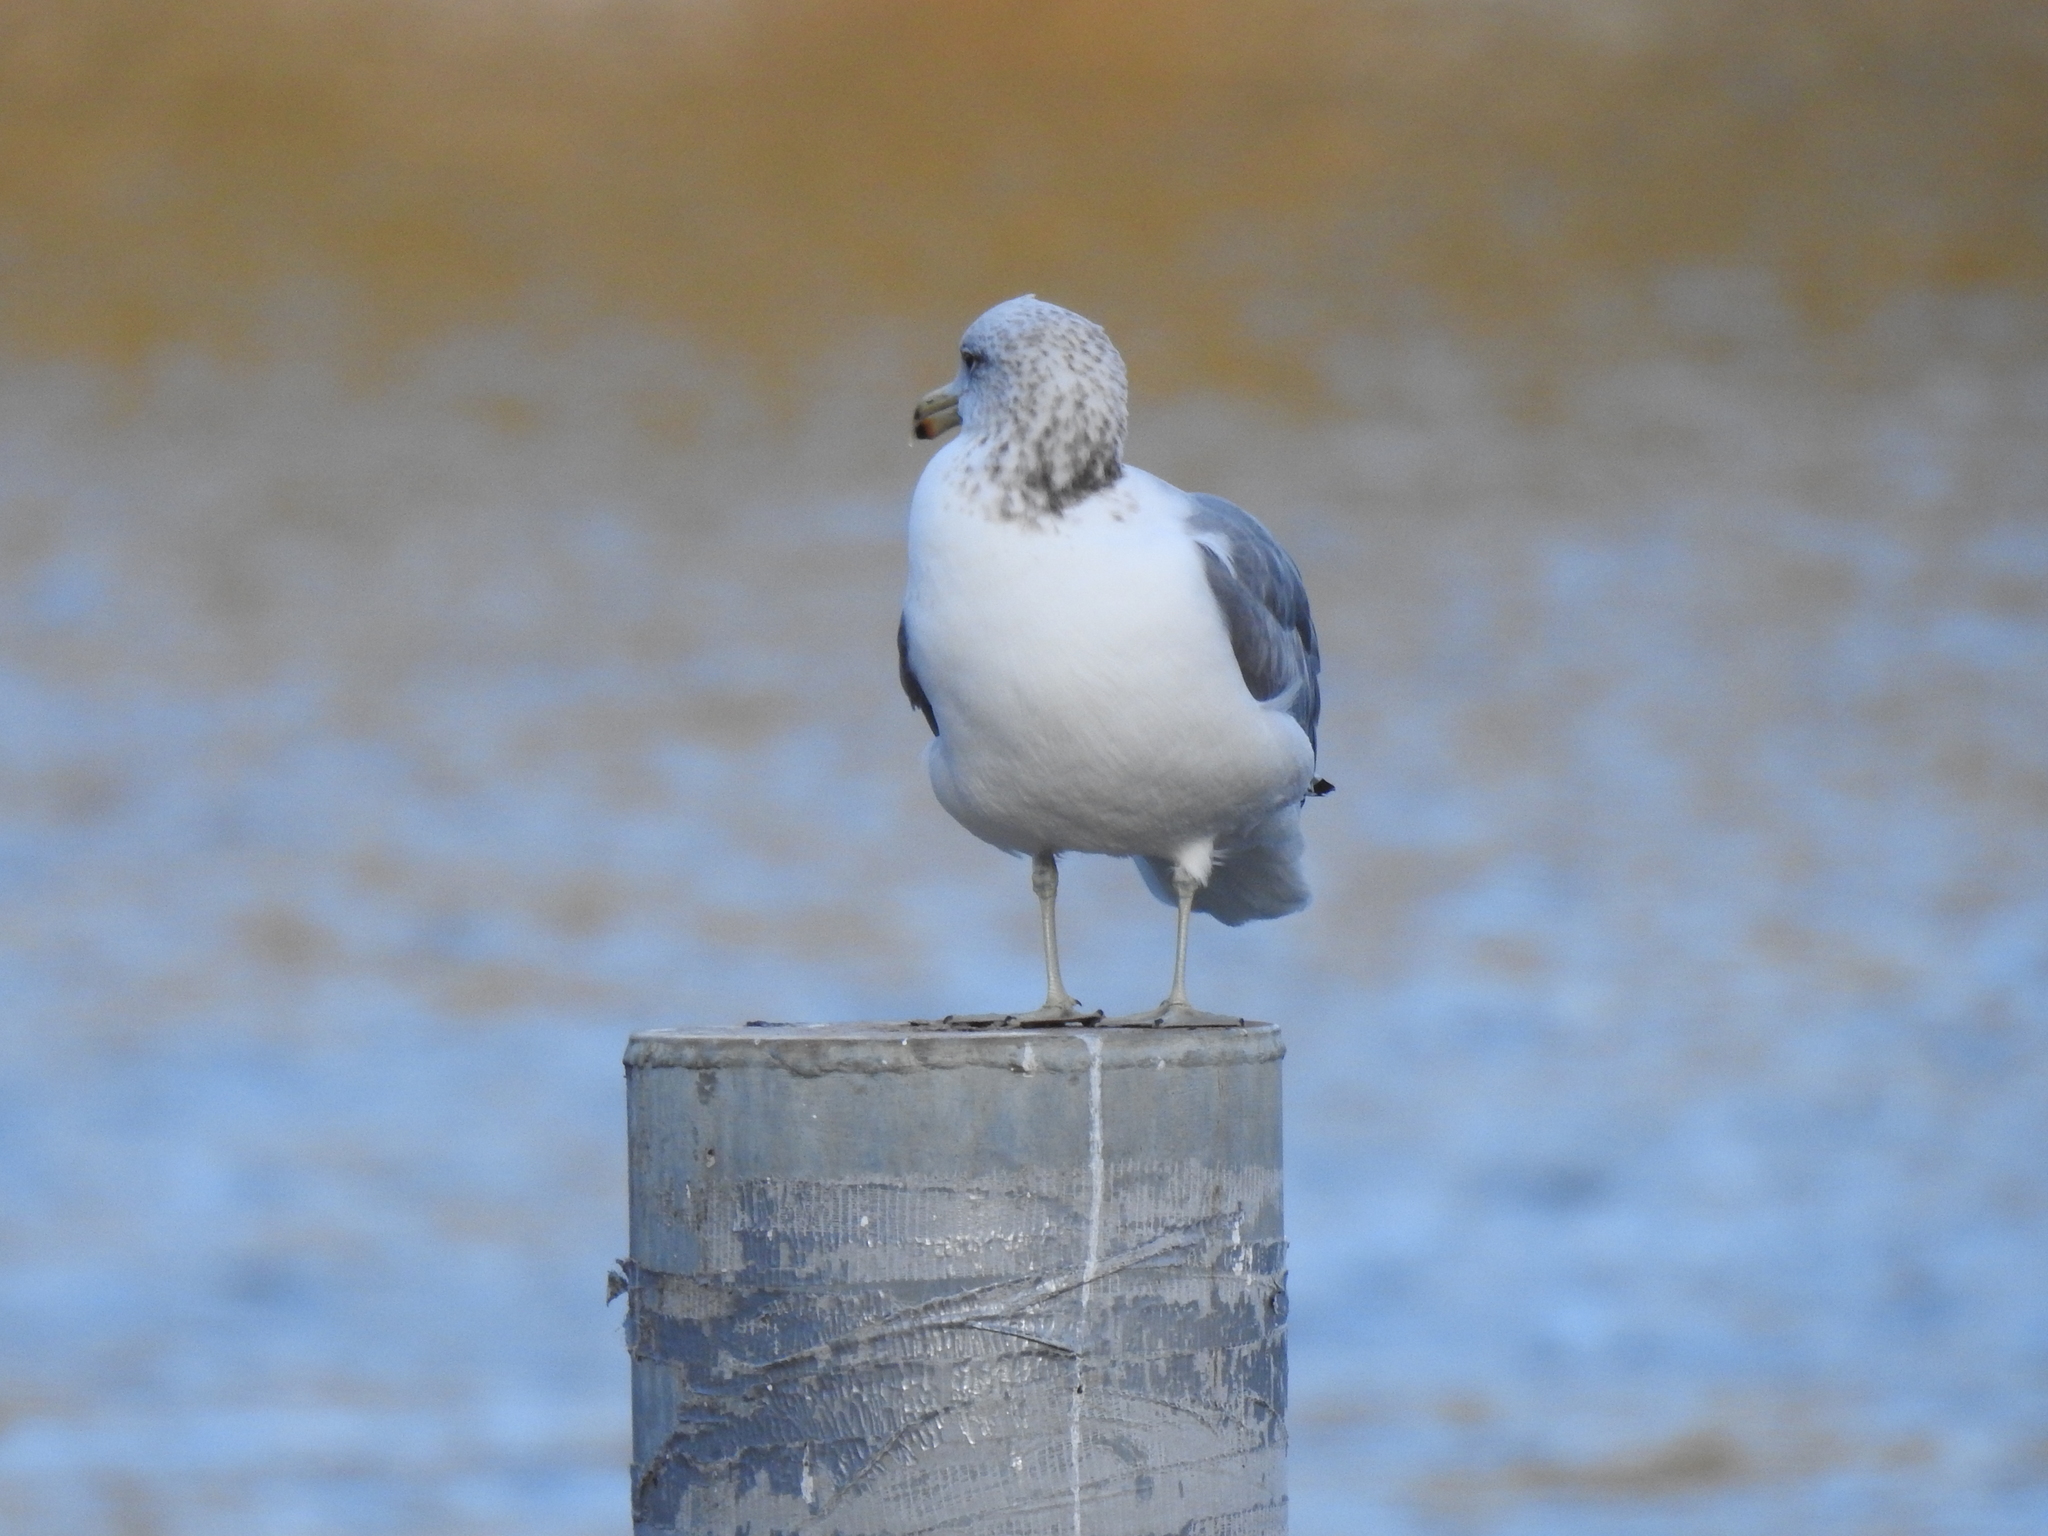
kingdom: Animalia
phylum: Chordata
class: Aves
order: Charadriiformes
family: Laridae
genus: Larus
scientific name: Larus californicus
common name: California gull
